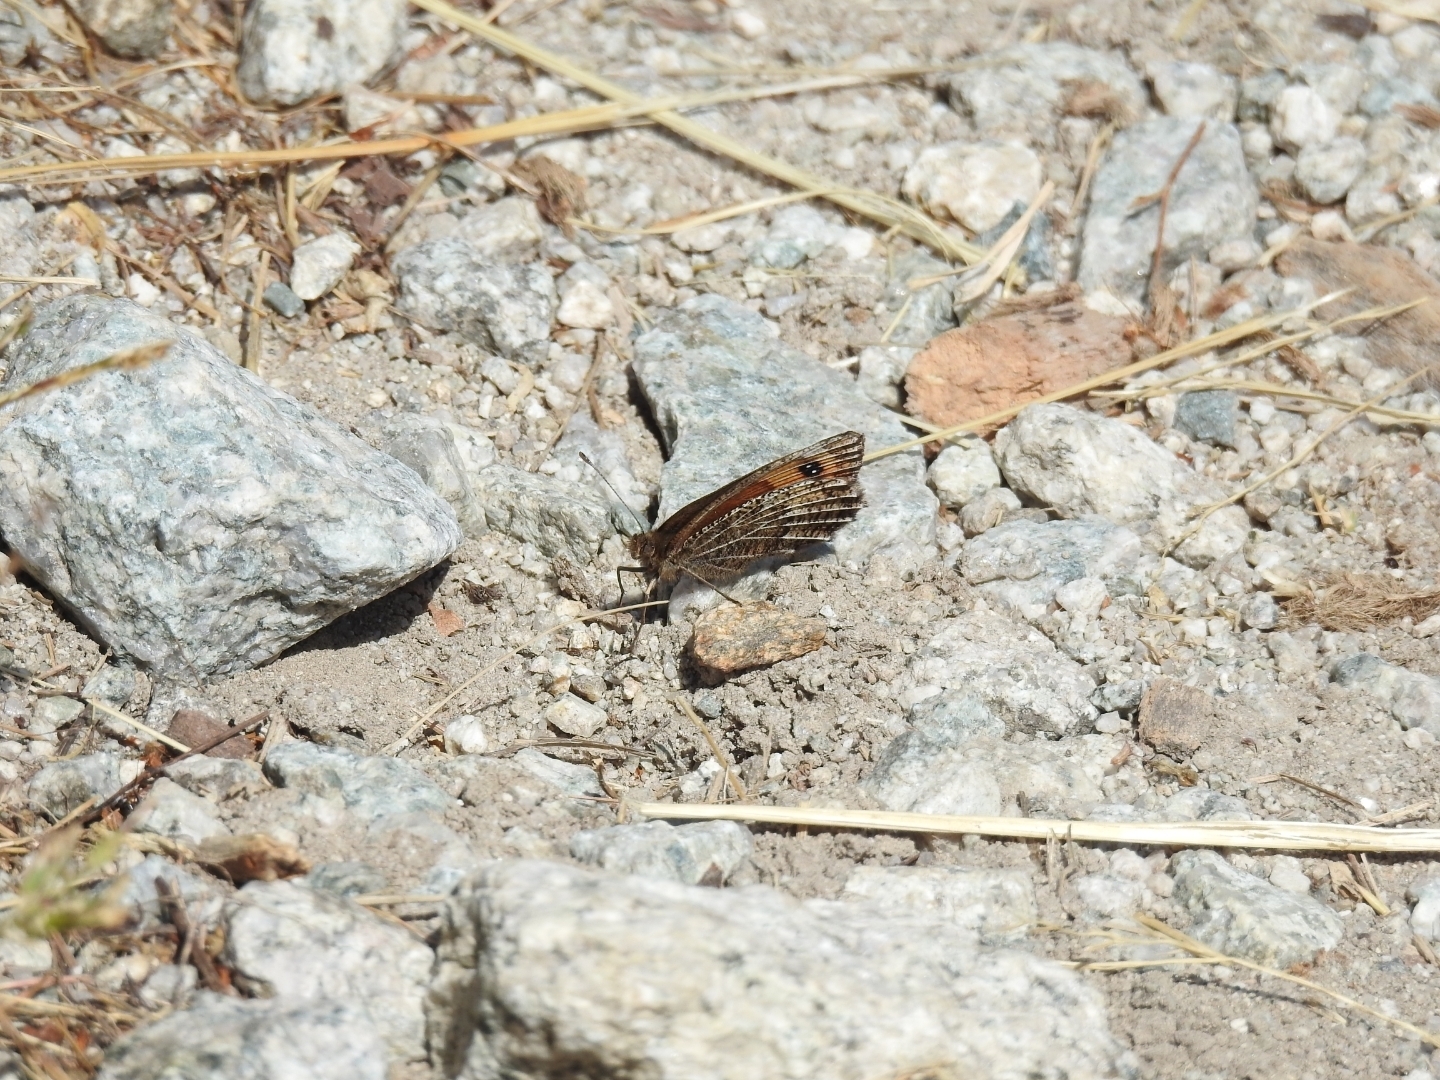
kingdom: Animalia
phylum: Arthropoda
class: Insecta
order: Lepidoptera
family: Nymphalidae
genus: Erebia
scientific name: Erebia montanus
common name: Marbled ringlet
